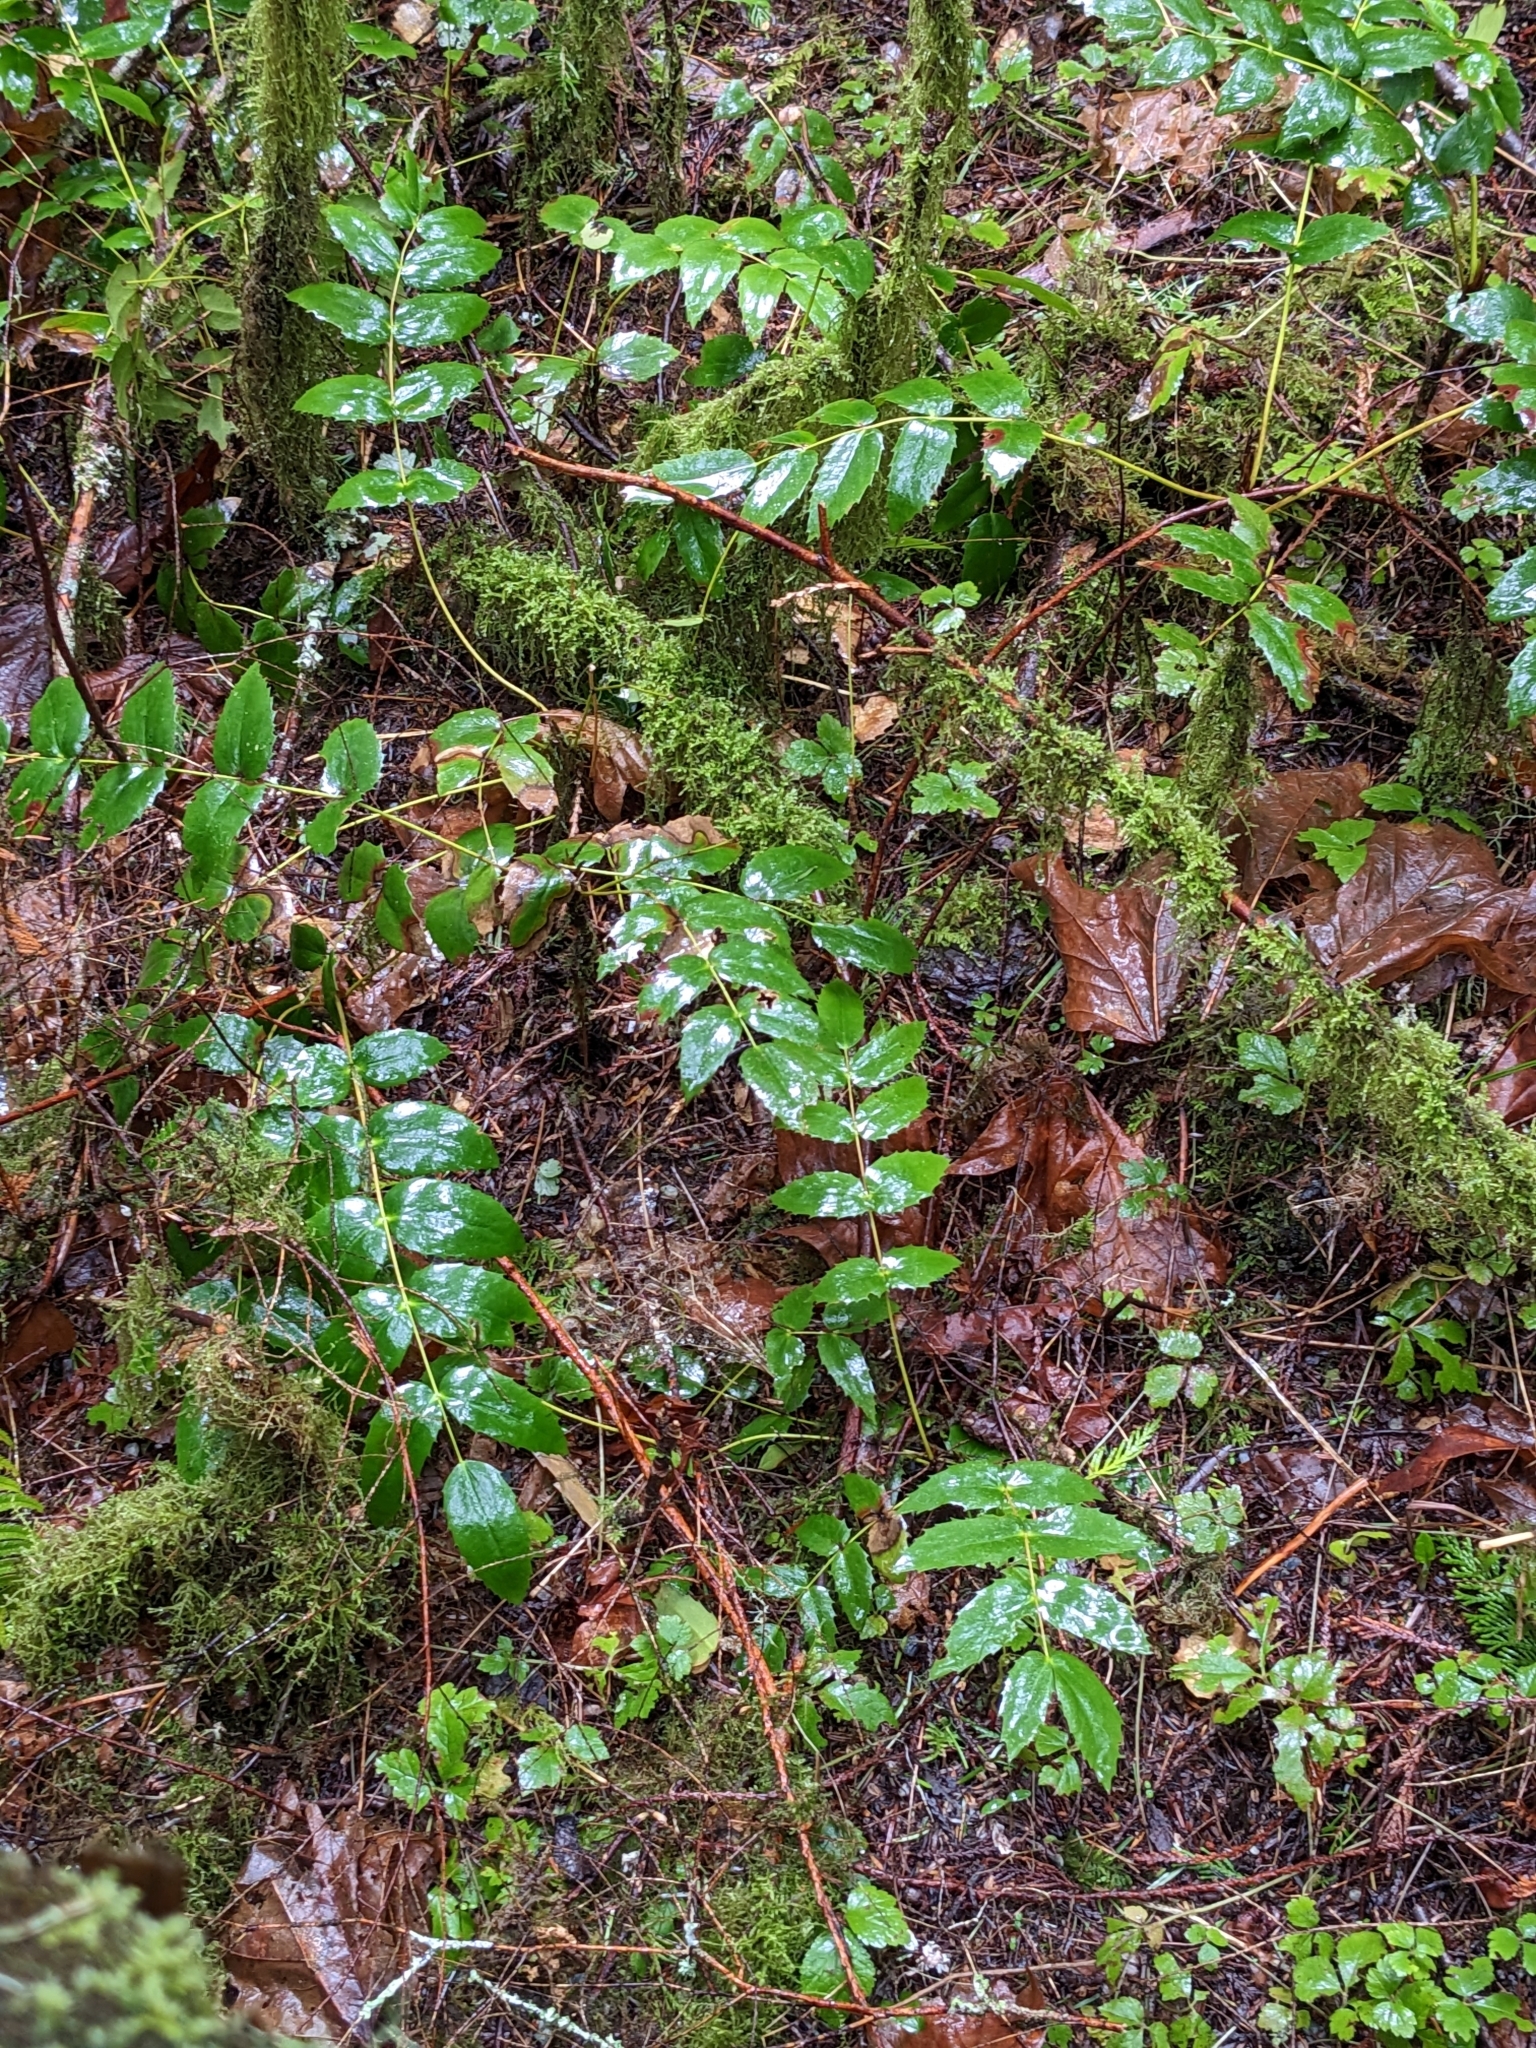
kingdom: Plantae
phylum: Tracheophyta
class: Magnoliopsida
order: Ranunculales
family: Berberidaceae
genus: Mahonia
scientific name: Mahonia nervosa
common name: Cascade oregon-grape
